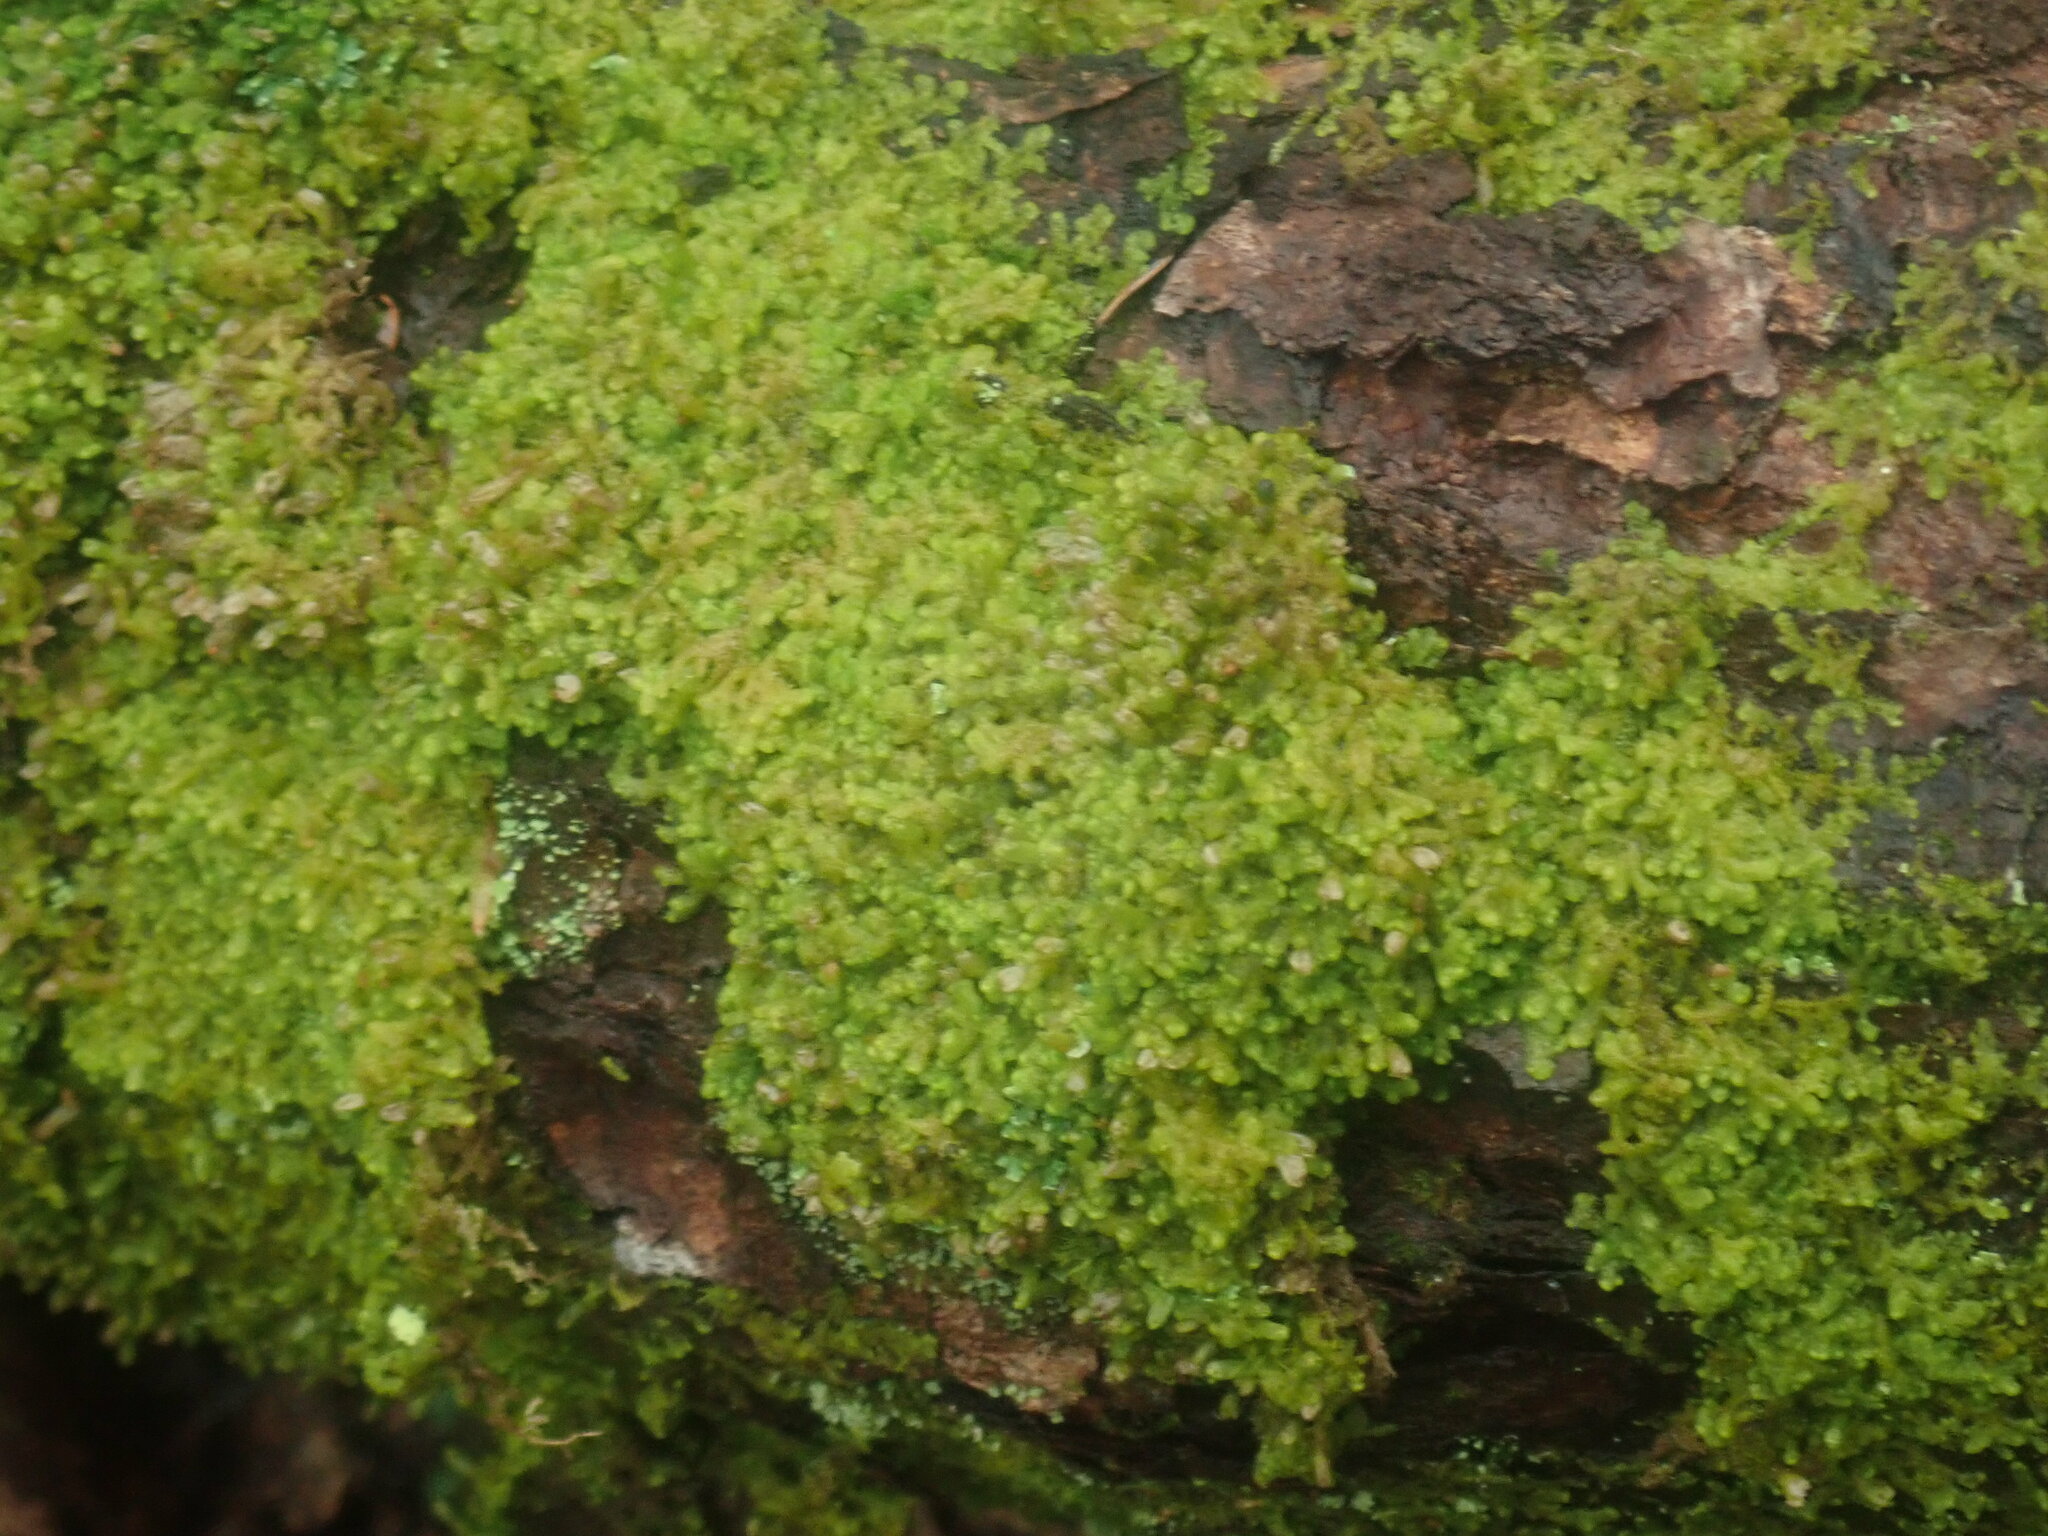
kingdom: Plantae
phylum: Marchantiophyta
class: Jungermanniopsida
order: Ptilidiales
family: Ptilidiaceae
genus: Ptilidium
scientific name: Ptilidium pulcherrimum
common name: Tree fringewort
